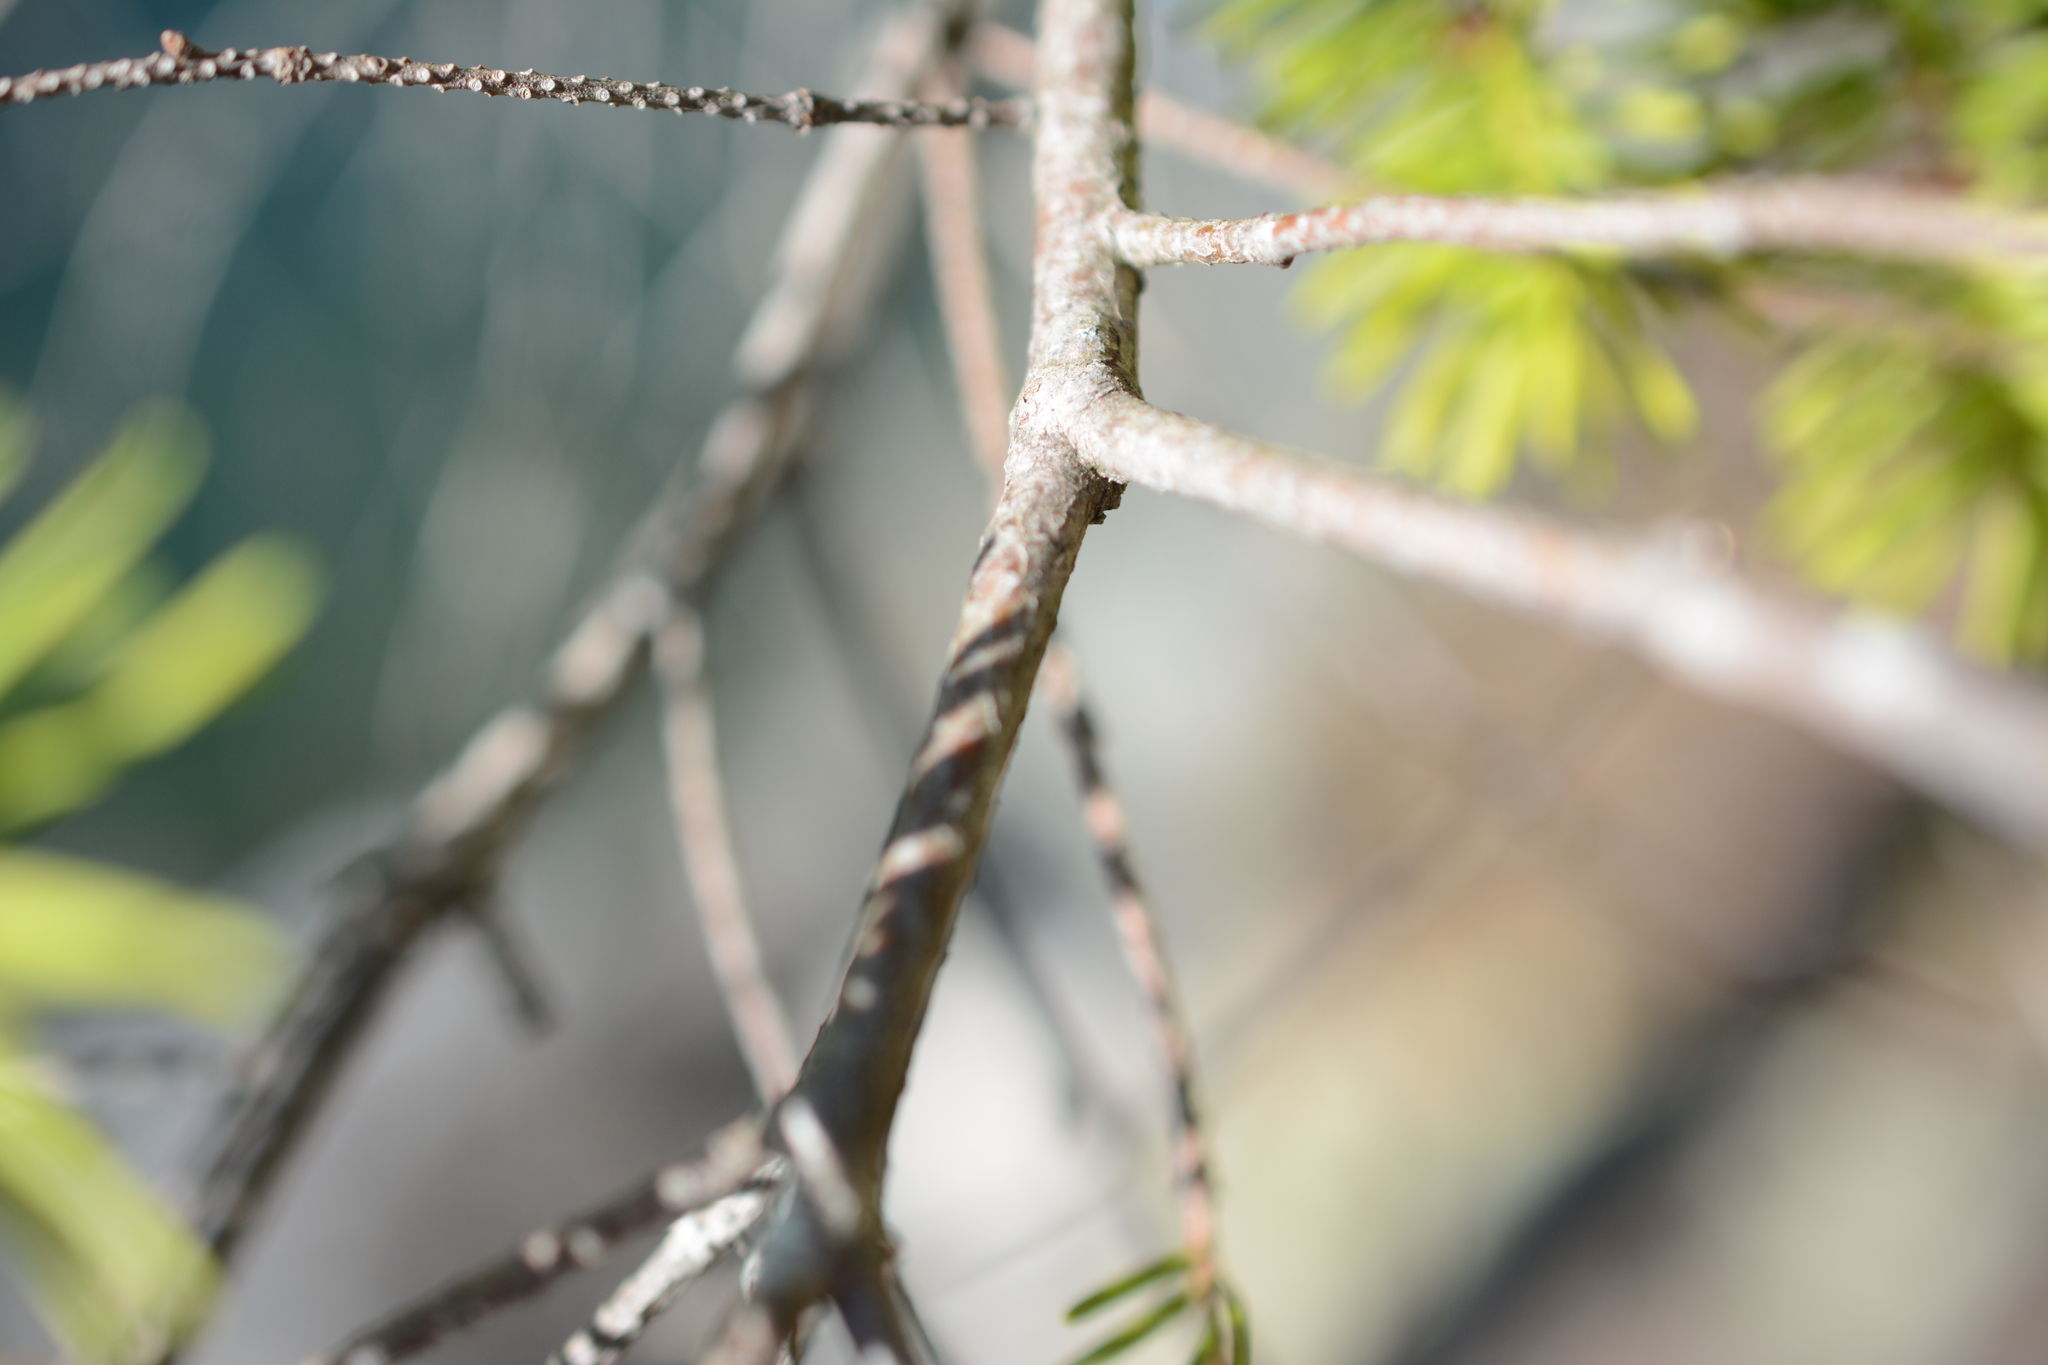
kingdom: Plantae
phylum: Tracheophyta
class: Pinopsida
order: Pinales
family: Pinaceae
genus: Pseudotsuga
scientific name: Pseudotsuga menziesii
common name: Douglas fir
